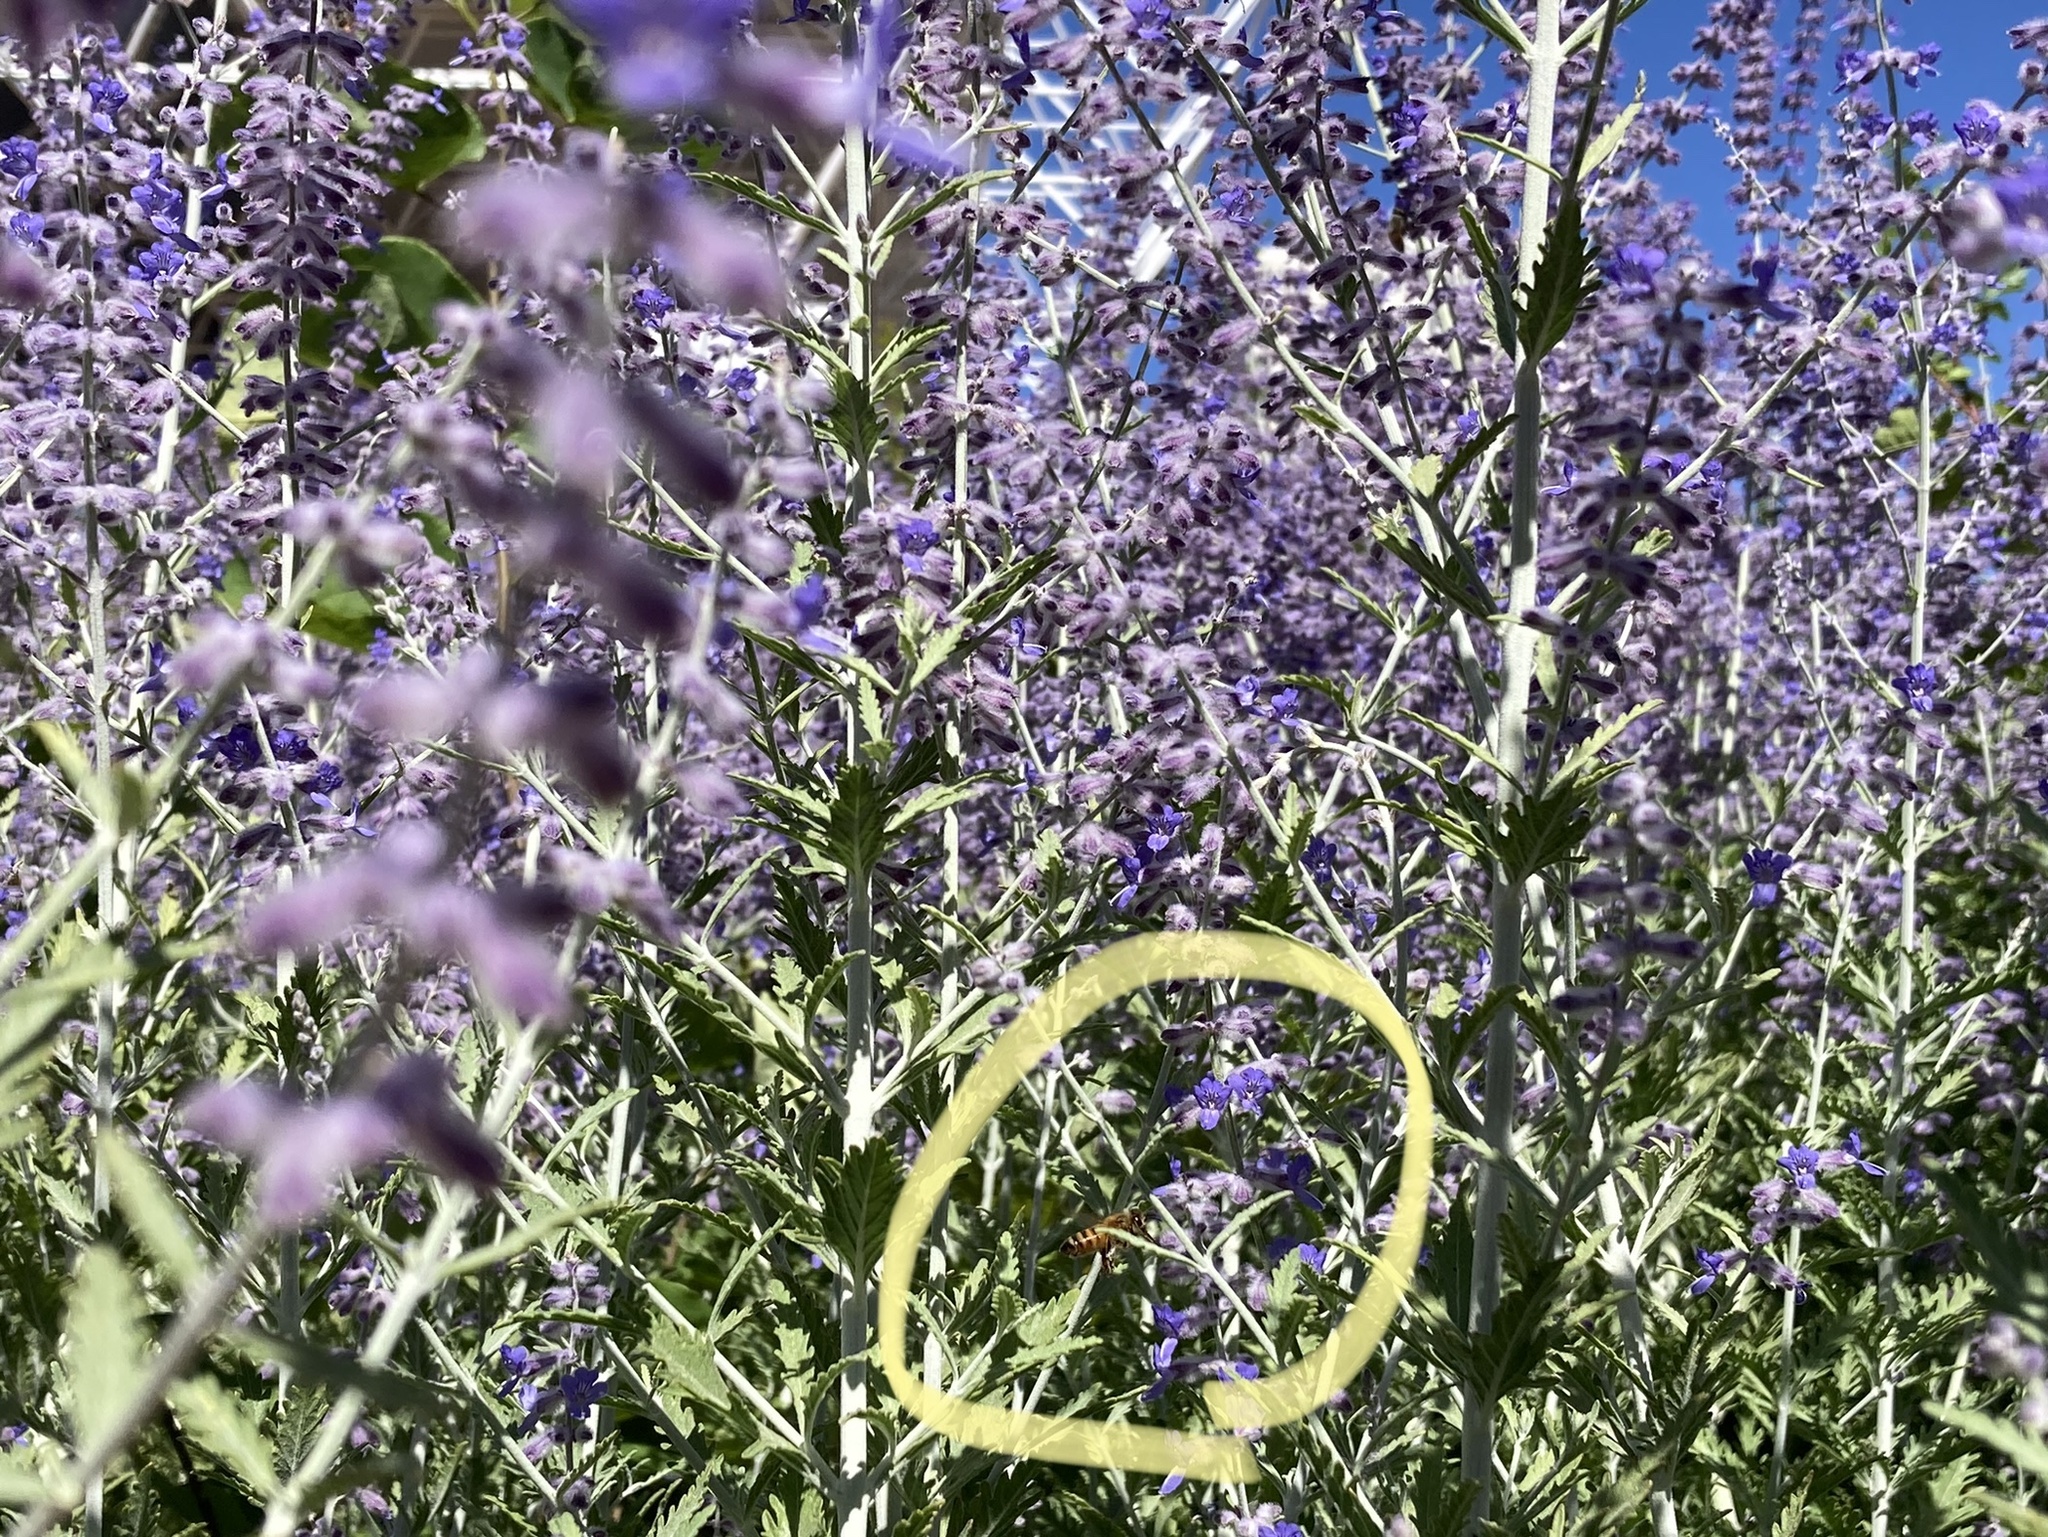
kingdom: Animalia
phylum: Arthropoda
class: Insecta
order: Hymenoptera
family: Apidae
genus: Apis
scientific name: Apis mellifera
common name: Honey bee
